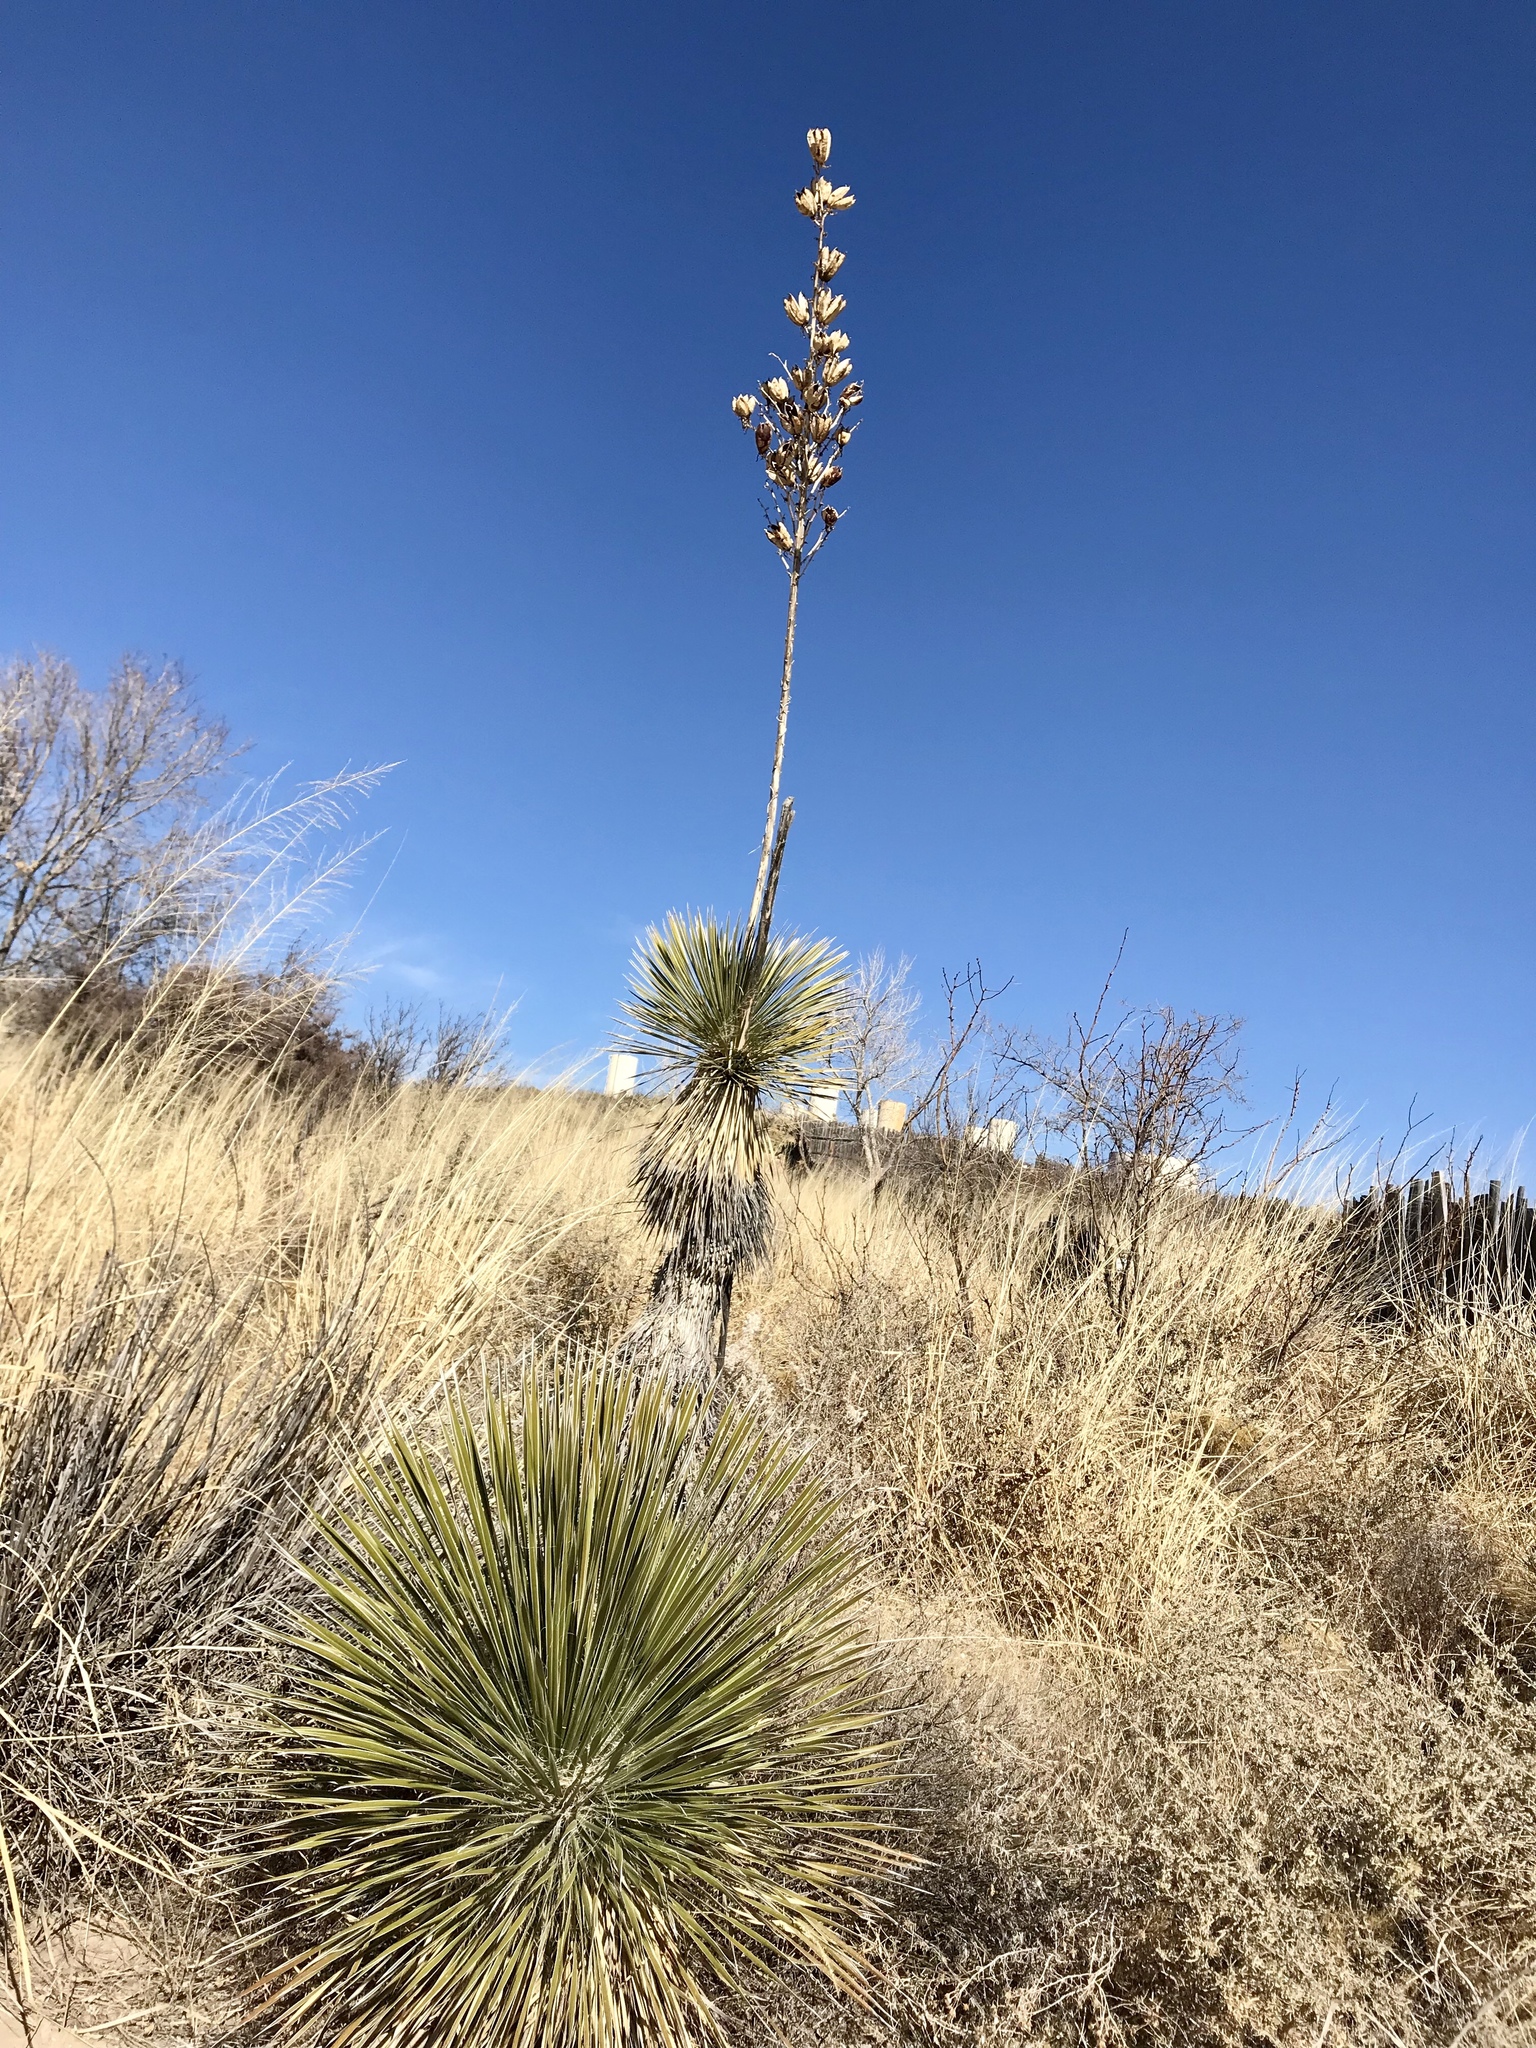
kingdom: Plantae
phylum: Tracheophyta
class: Liliopsida
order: Asparagales
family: Asparagaceae
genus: Yucca
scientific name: Yucca elata
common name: Palmella
